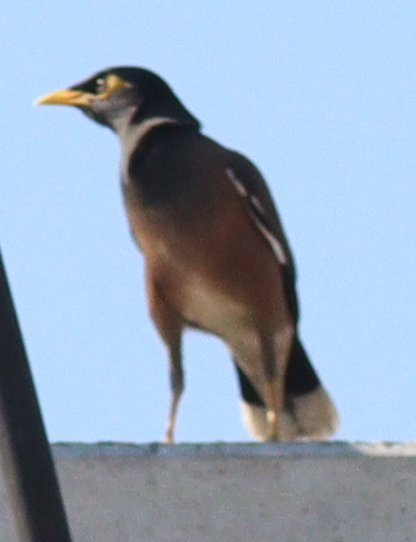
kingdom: Animalia
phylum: Chordata
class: Aves
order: Passeriformes
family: Sturnidae
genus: Acridotheres
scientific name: Acridotheres tristis
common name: Common myna
